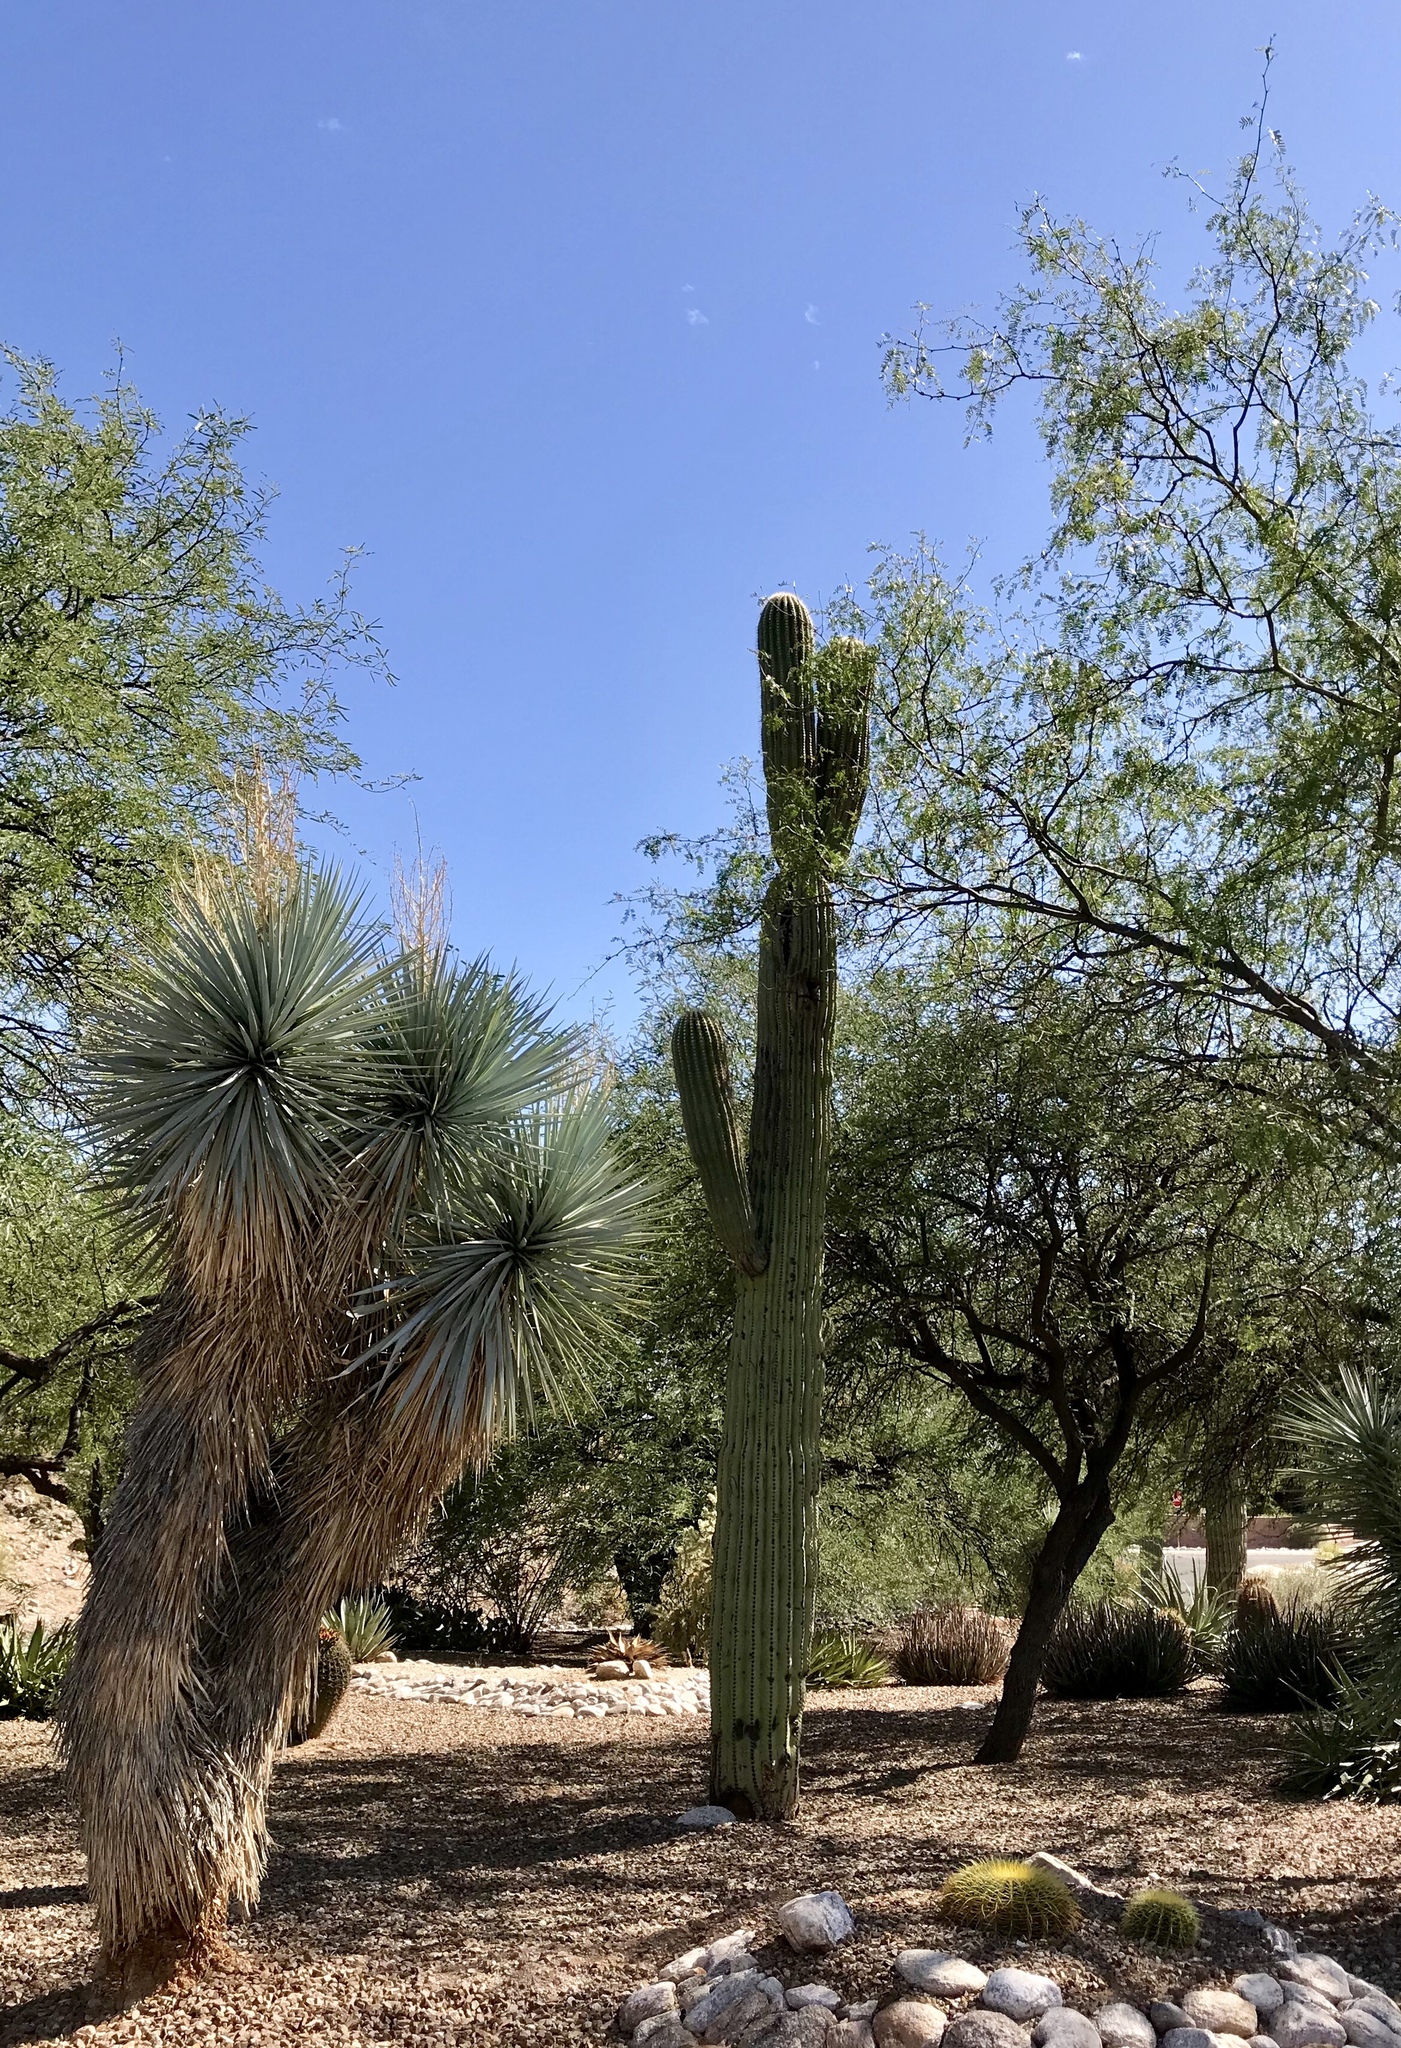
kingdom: Plantae
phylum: Tracheophyta
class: Magnoliopsida
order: Caryophyllales
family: Cactaceae
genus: Carnegiea
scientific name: Carnegiea gigantea
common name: Saguaro
